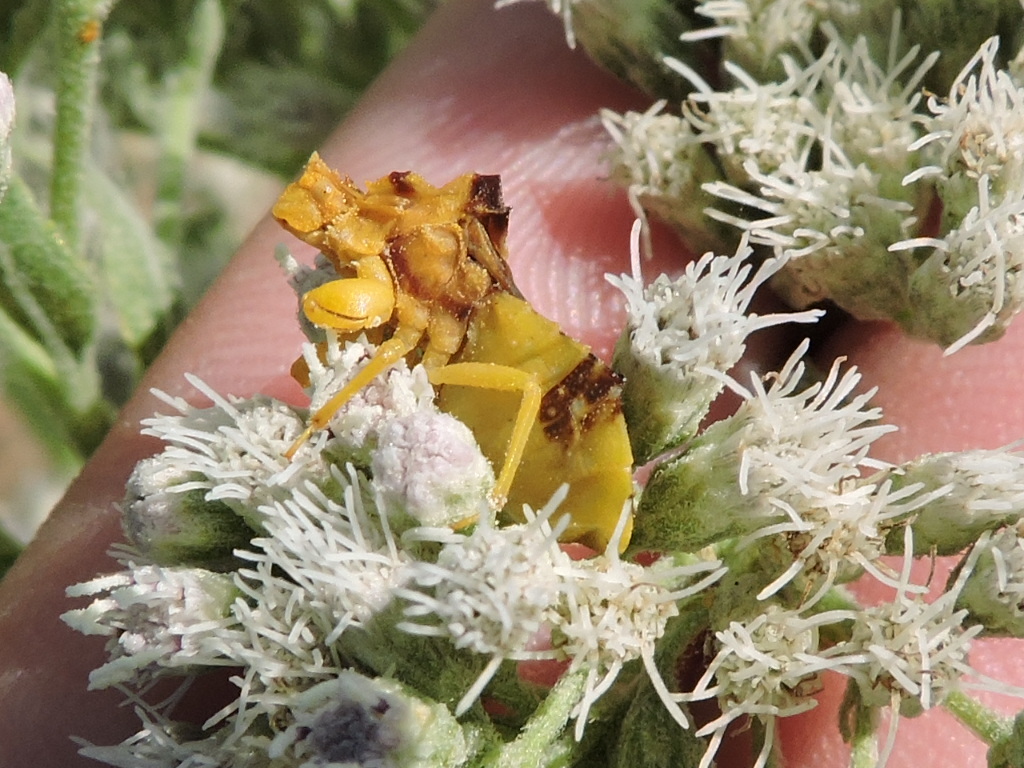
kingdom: Animalia
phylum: Arthropoda
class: Insecta
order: Hemiptera
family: Reduviidae
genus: Phymata
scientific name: Phymata americana
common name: Jagged ambush bug
